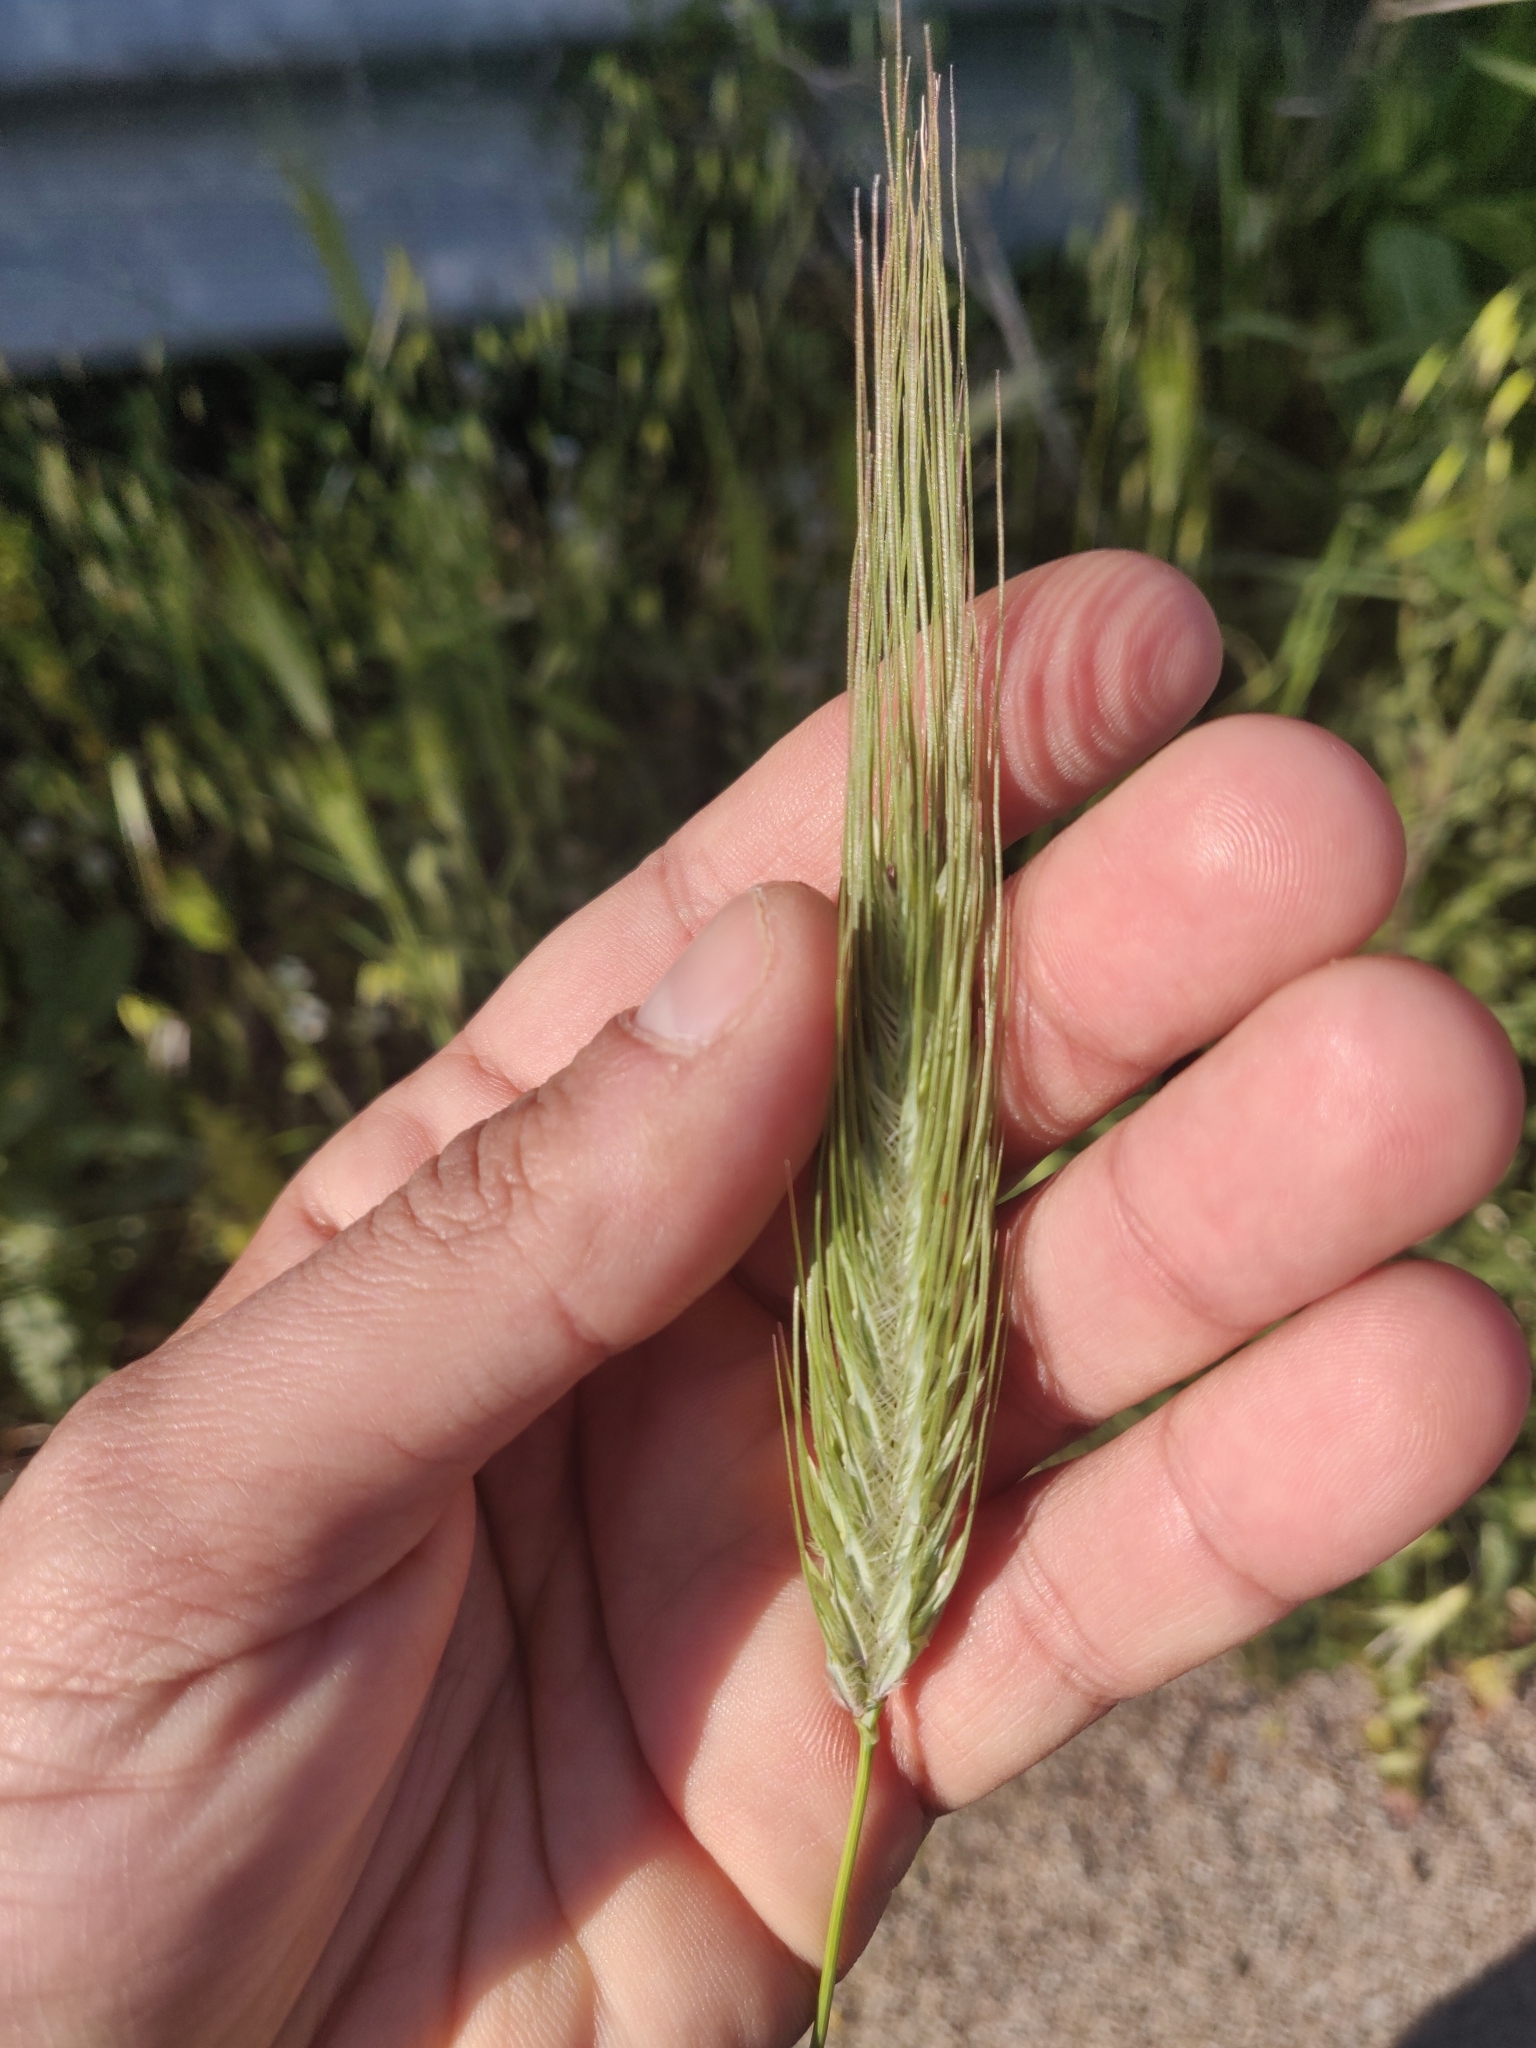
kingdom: Plantae
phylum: Tracheophyta
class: Liliopsida
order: Poales
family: Poaceae
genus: Dasypyrum
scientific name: Dasypyrum villosum
